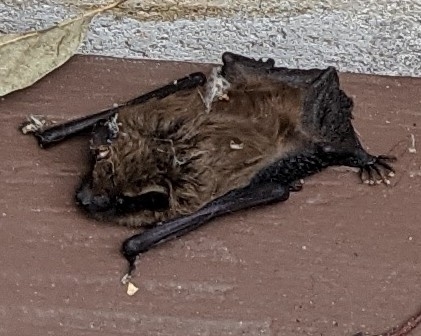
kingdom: Animalia
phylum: Chordata
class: Mammalia
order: Chiroptera
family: Vespertilionidae
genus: Eptesicus
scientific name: Eptesicus fuscus
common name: Big brown bat
